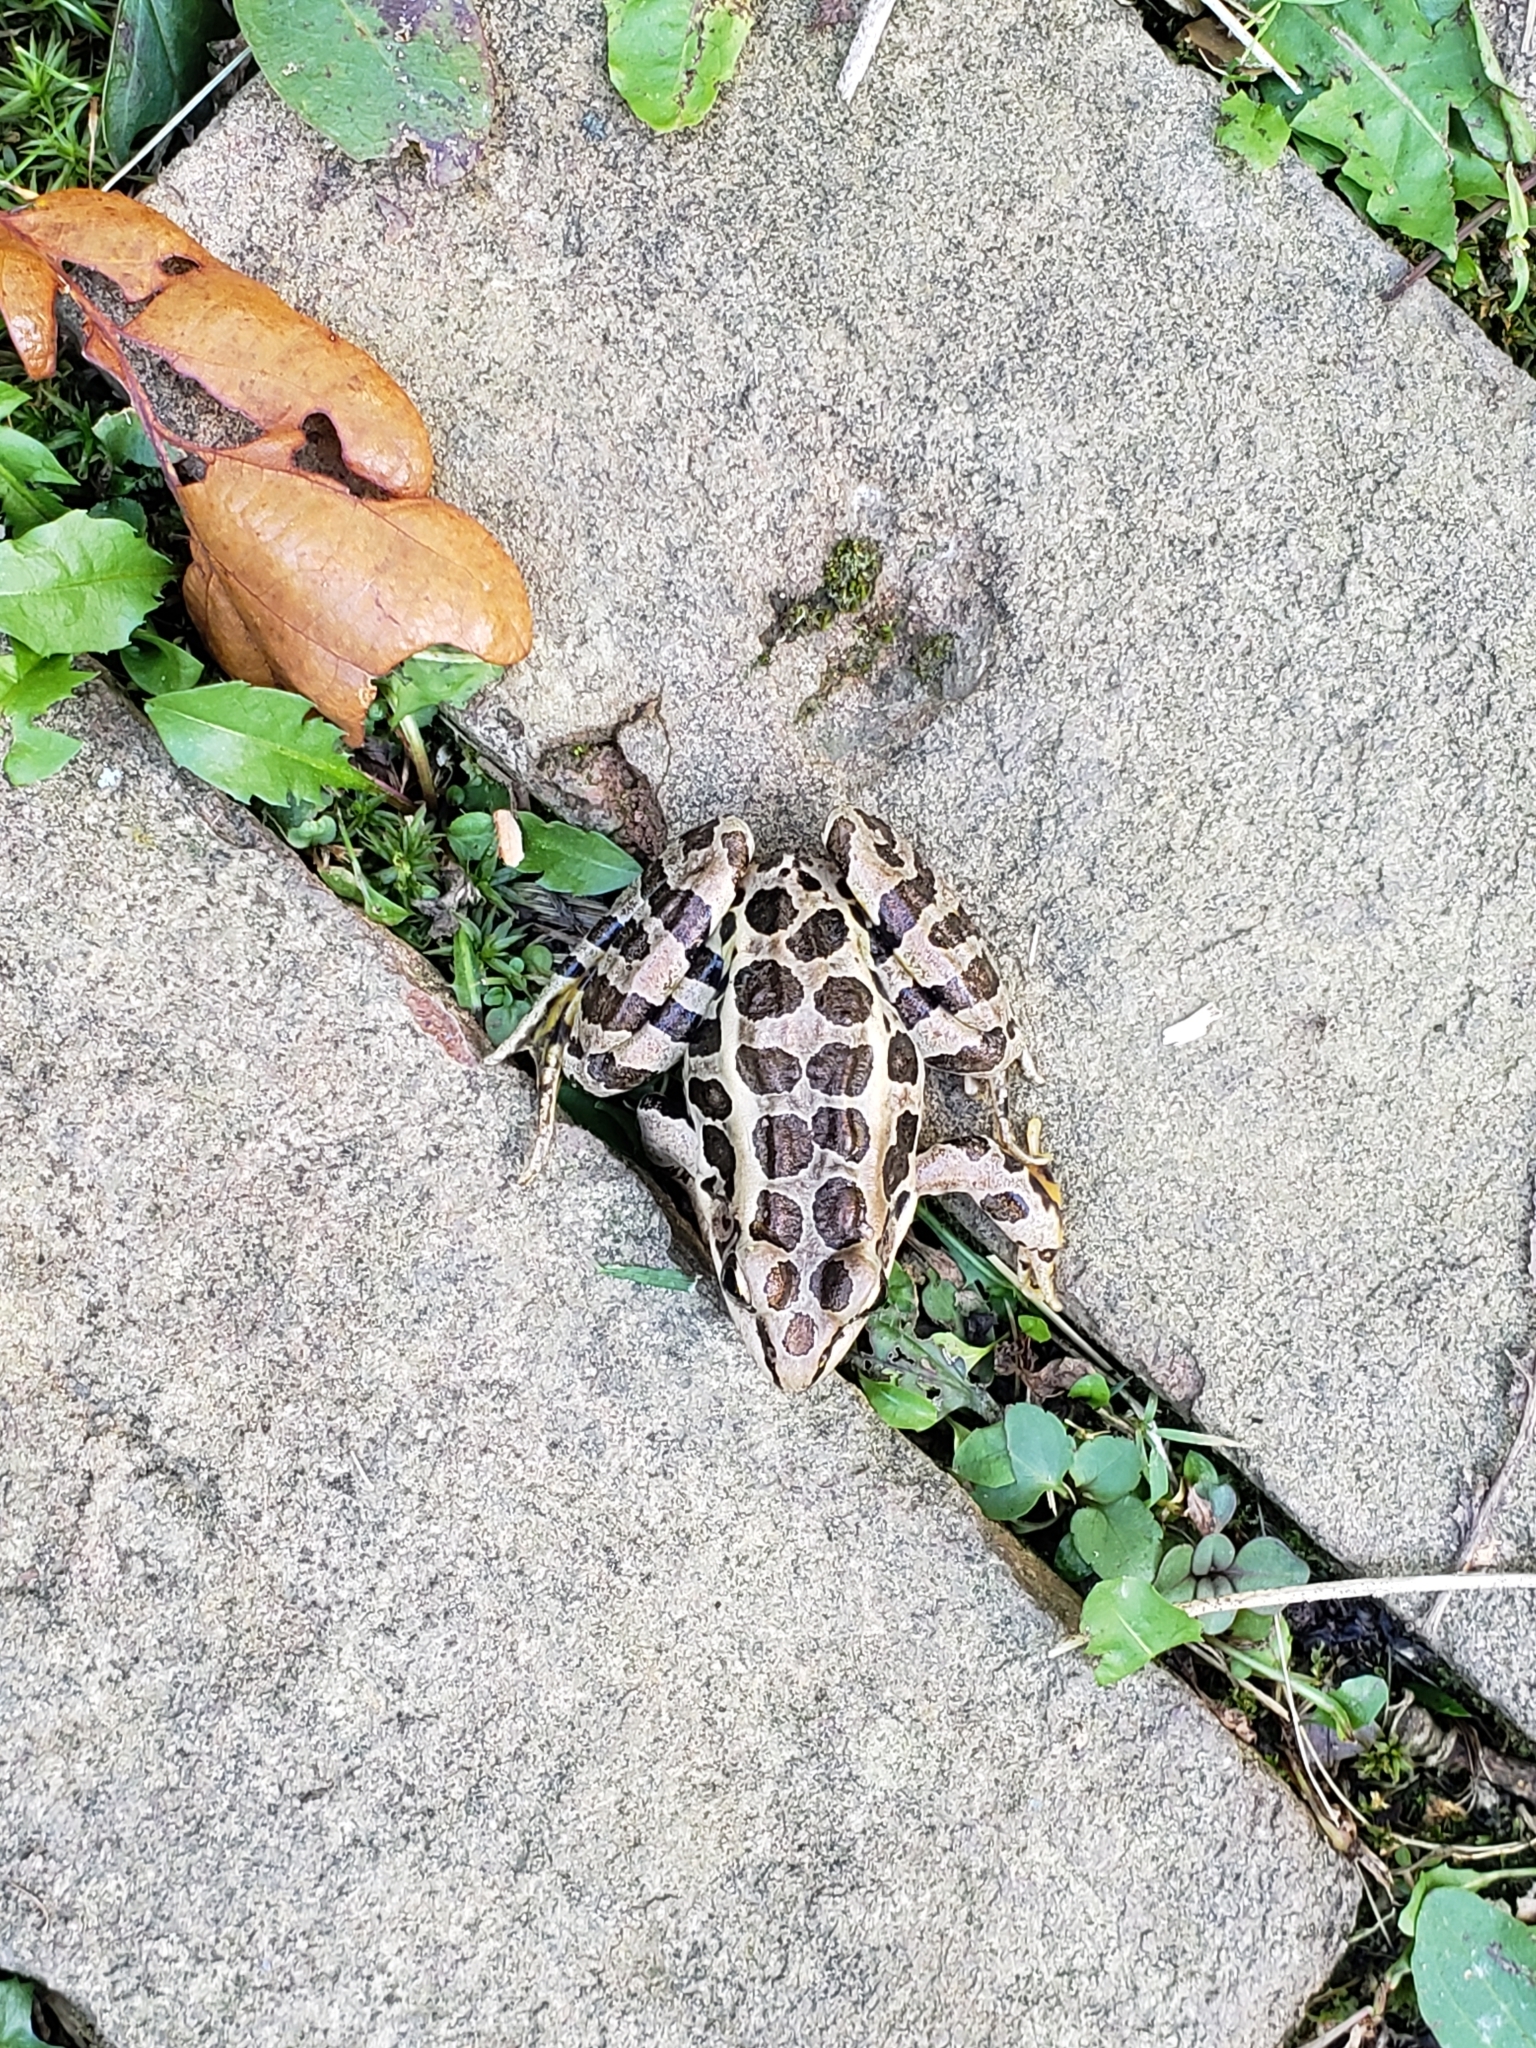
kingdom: Animalia
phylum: Chordata
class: Amphibia
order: Anura
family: Ranidae
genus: Lithobates
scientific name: Lithobates palustris
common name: Pickerel frog
